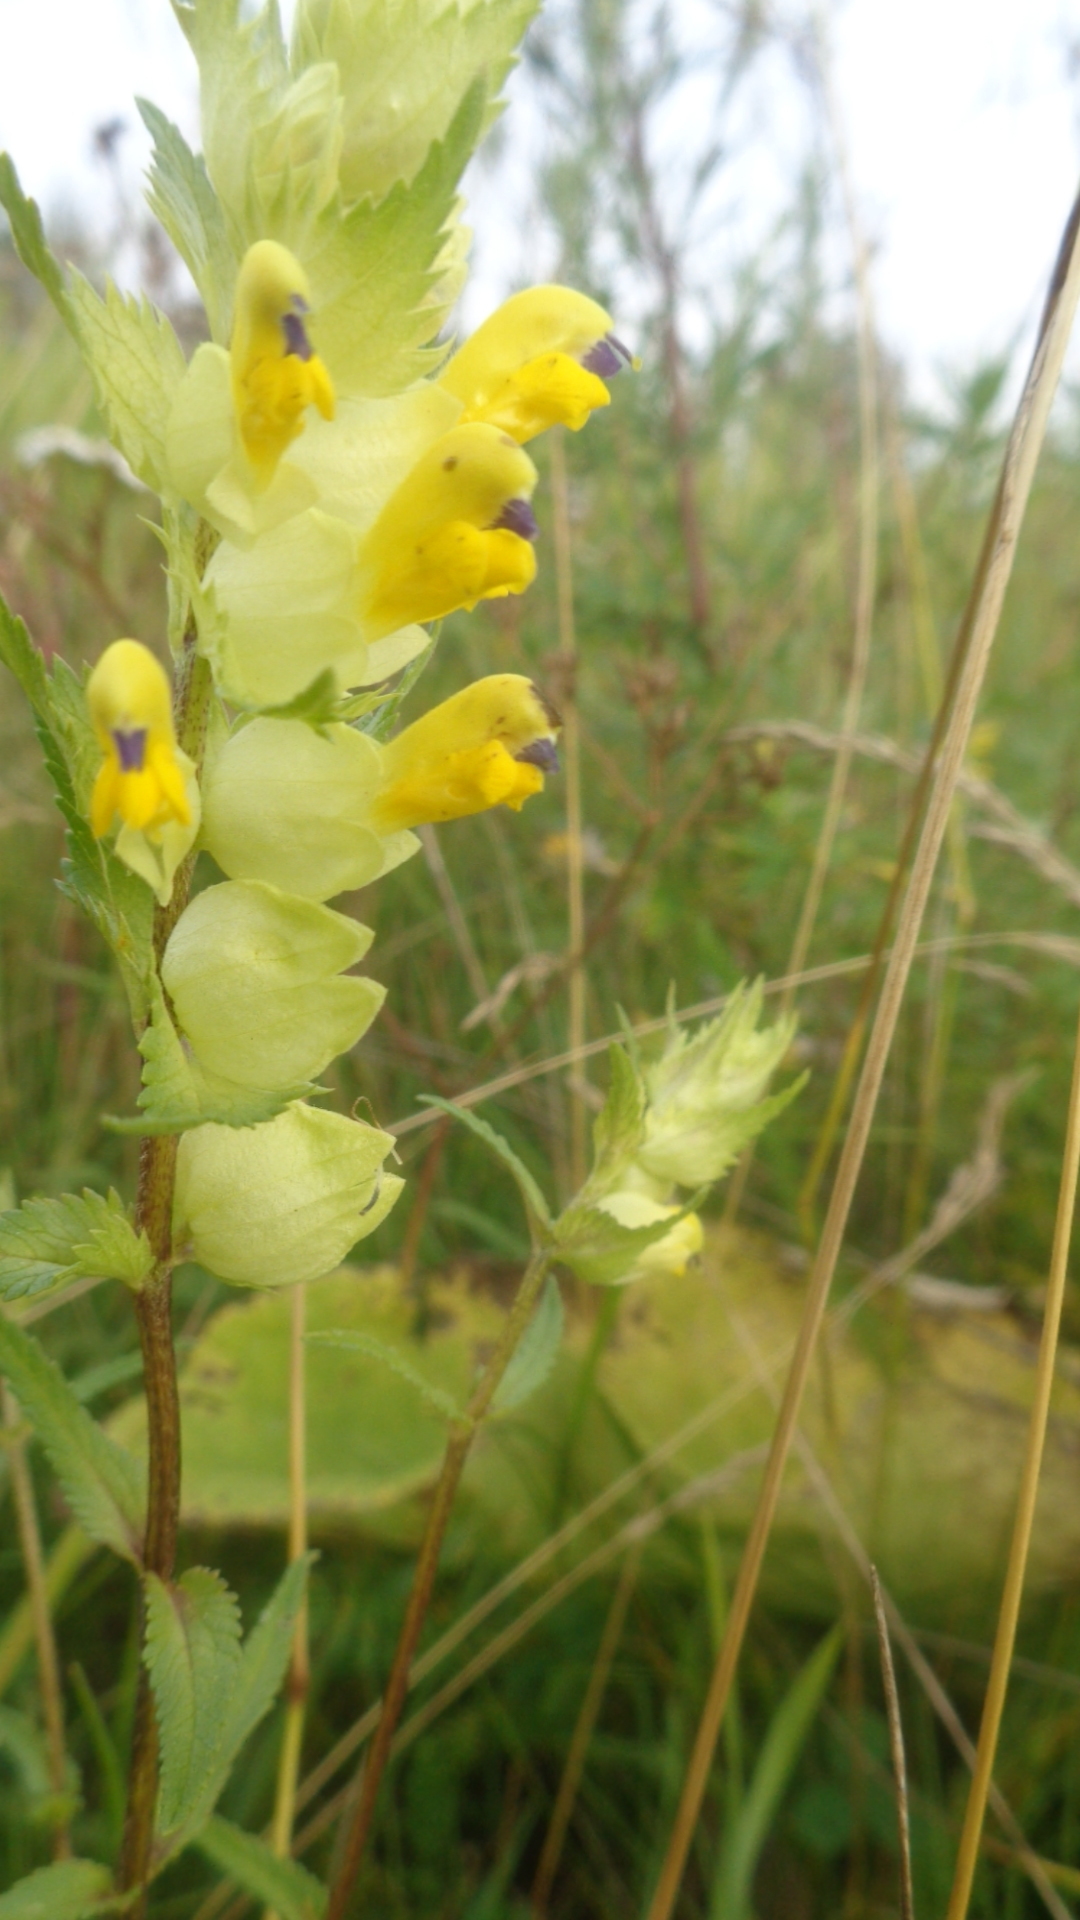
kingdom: Plantae
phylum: Tracheophyta
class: Magnoliopsida
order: Lamiales
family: Orobanchaceae
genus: Rhinanthus
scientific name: Rhinanthus serotinus
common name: Late-flowering yellow rattle
